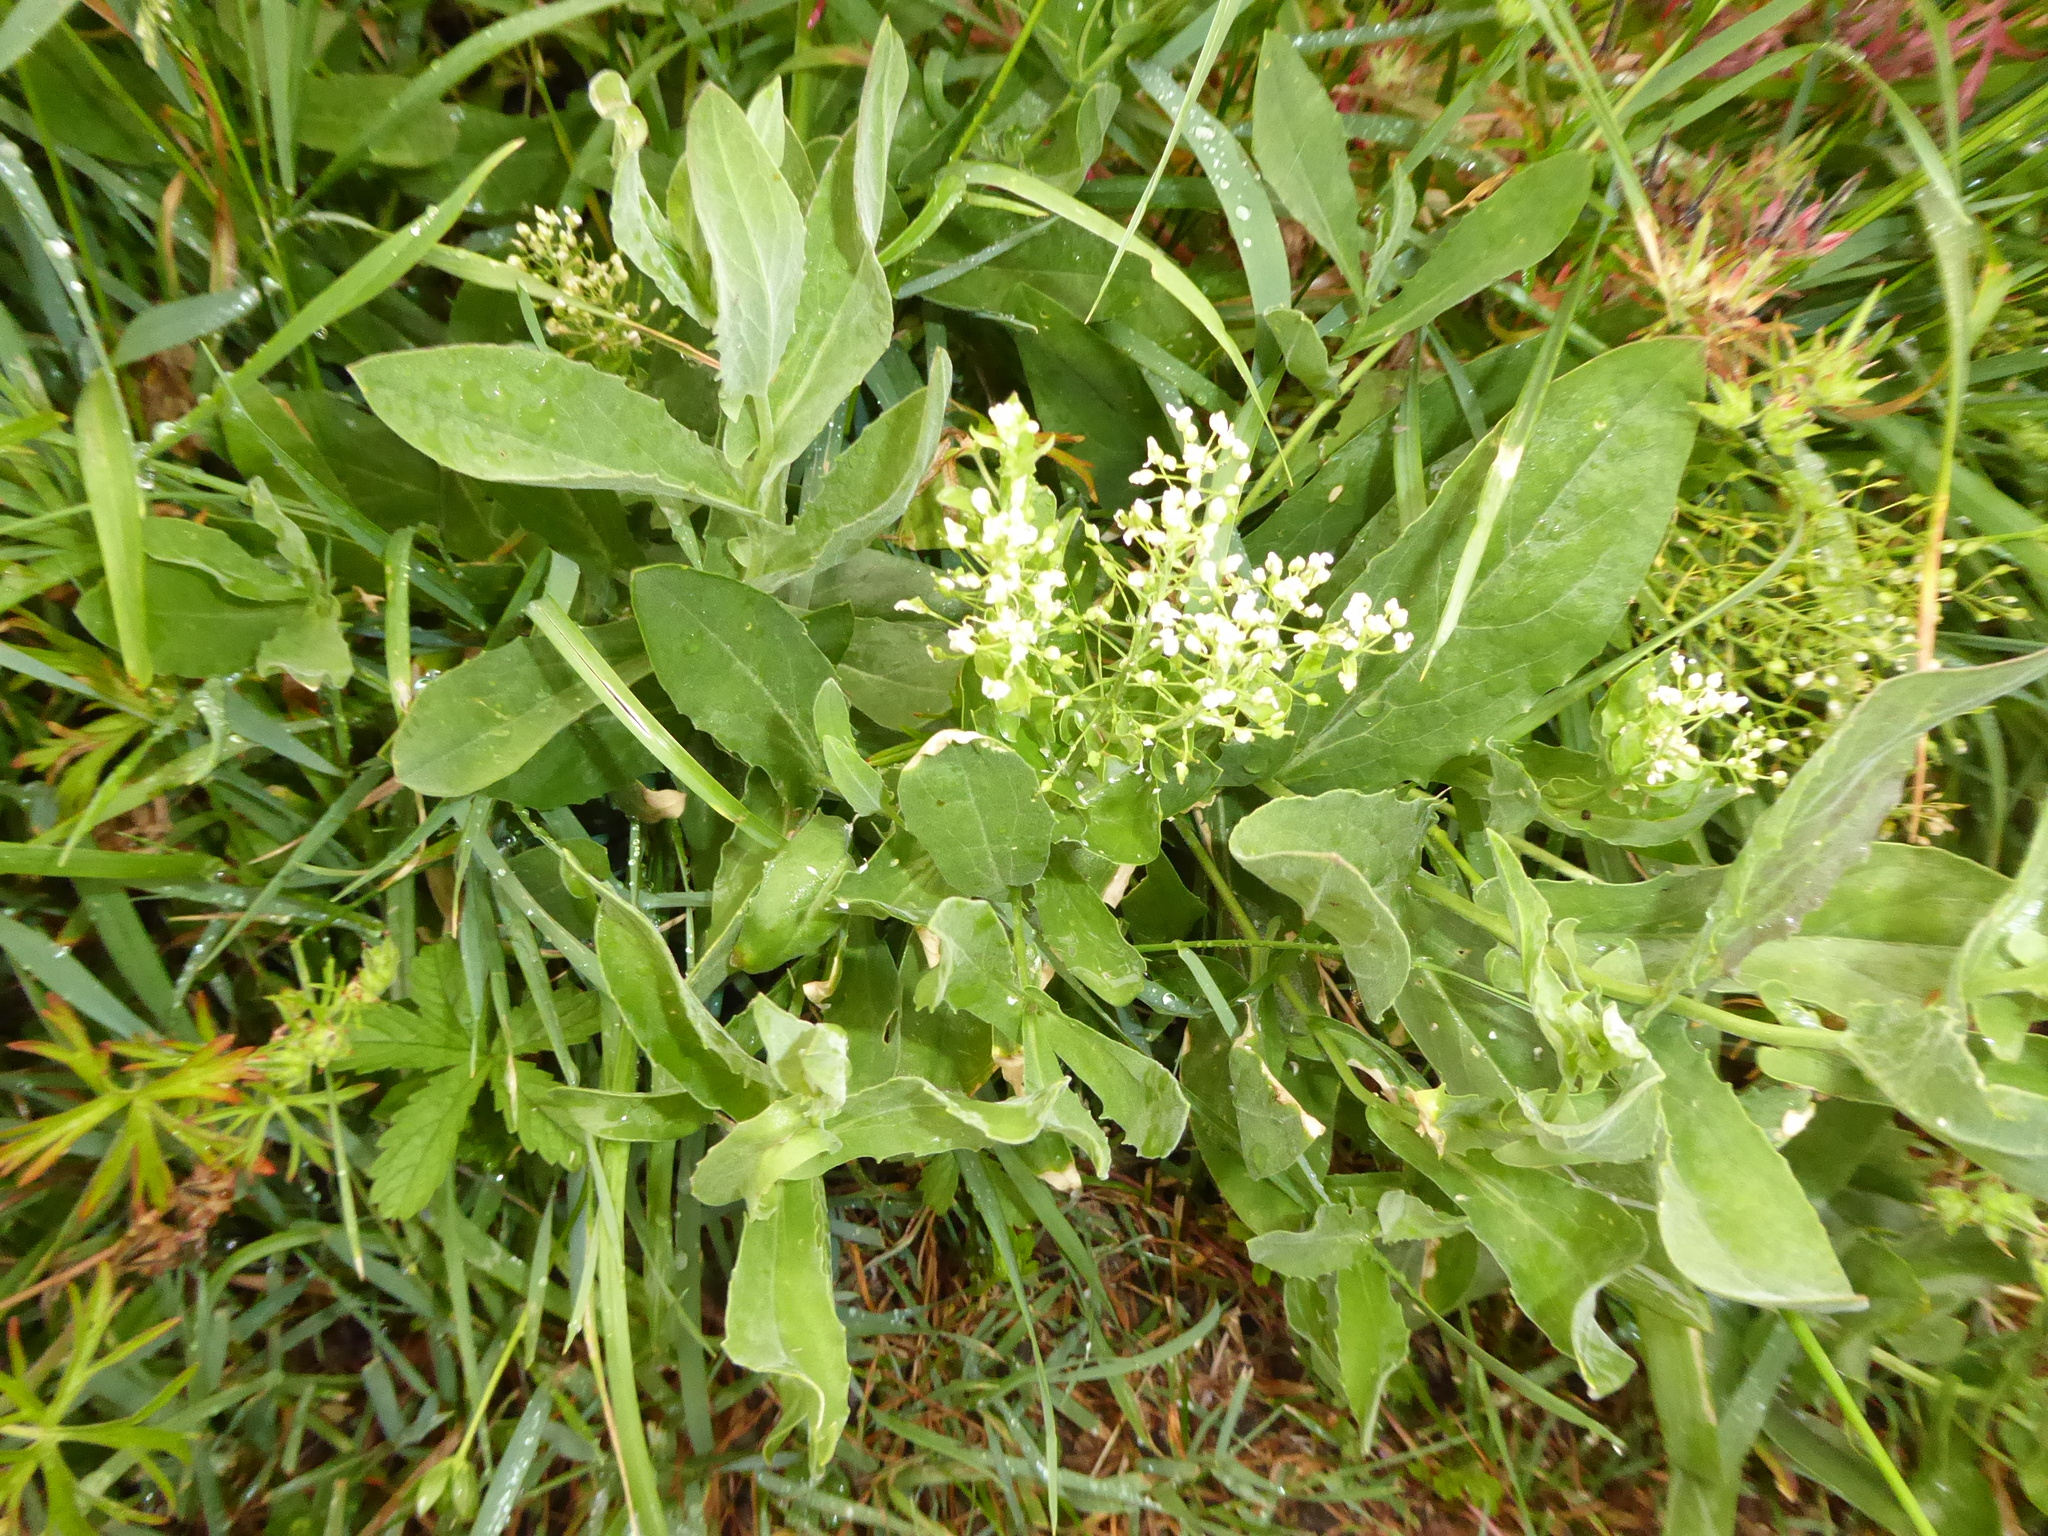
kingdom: Plantae
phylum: Tracheophyta
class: Magnoliopsida
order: Brassicales
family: Brassicaceae
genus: Lepidium
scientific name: Lepidium draba
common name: Hoary cress
